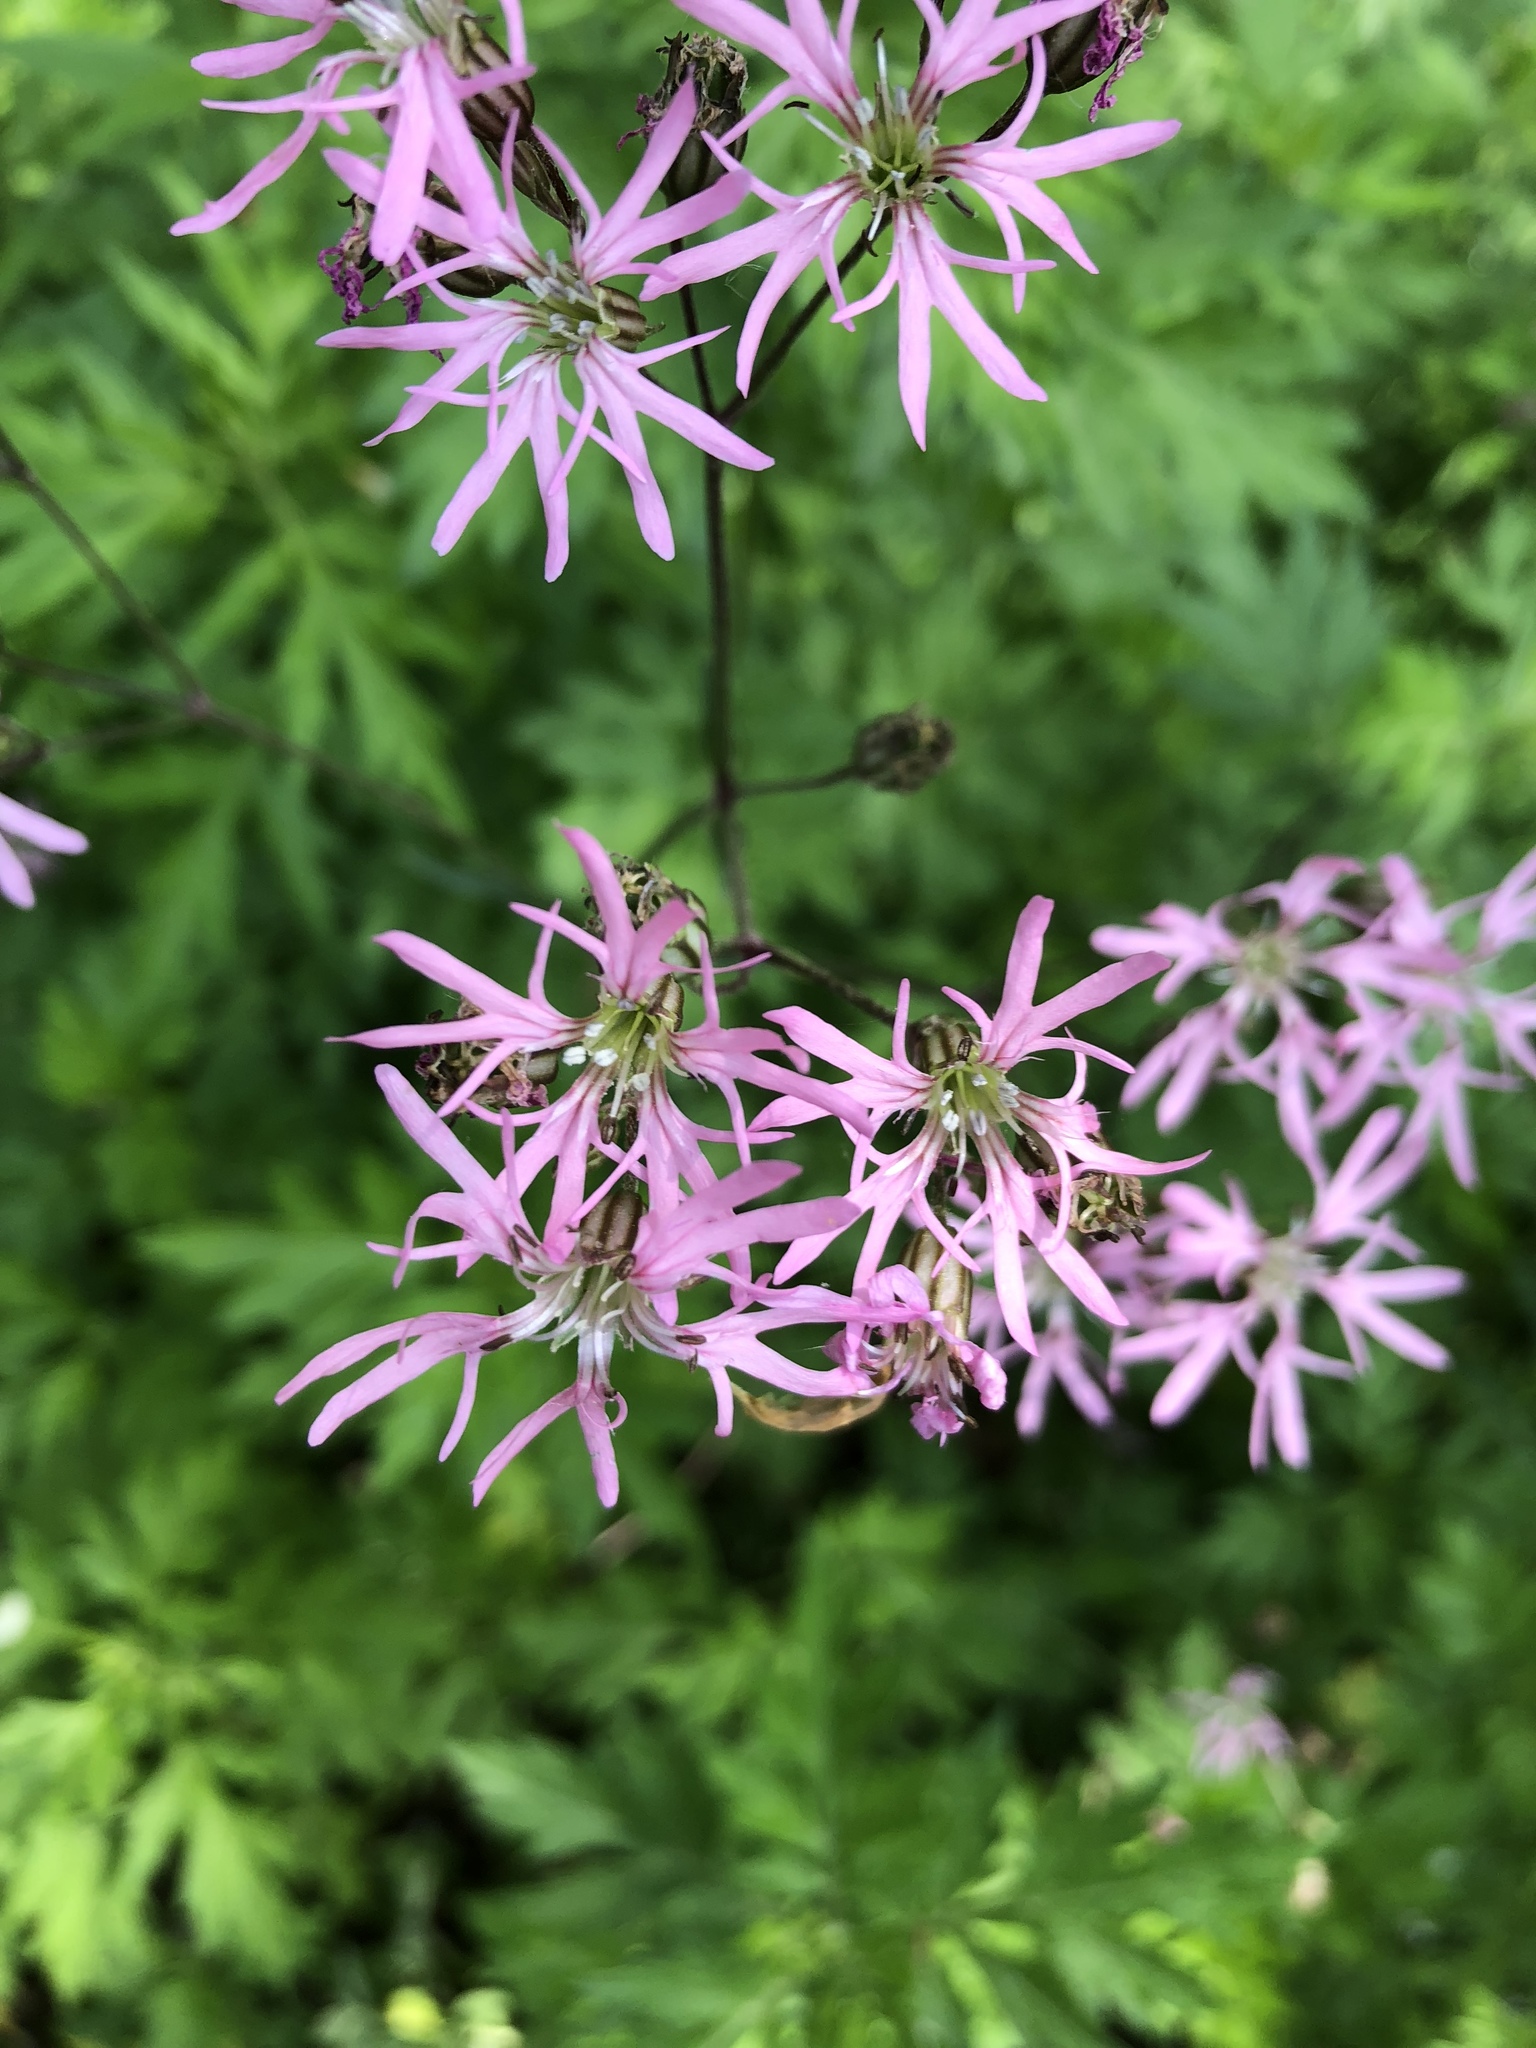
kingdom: Plantae
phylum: Tracheophyta
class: Magnoliopsida
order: Caryophyllales
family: Caryophyllaceae
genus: Silene
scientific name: Silene flos-cuculi
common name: Ragged-robin
